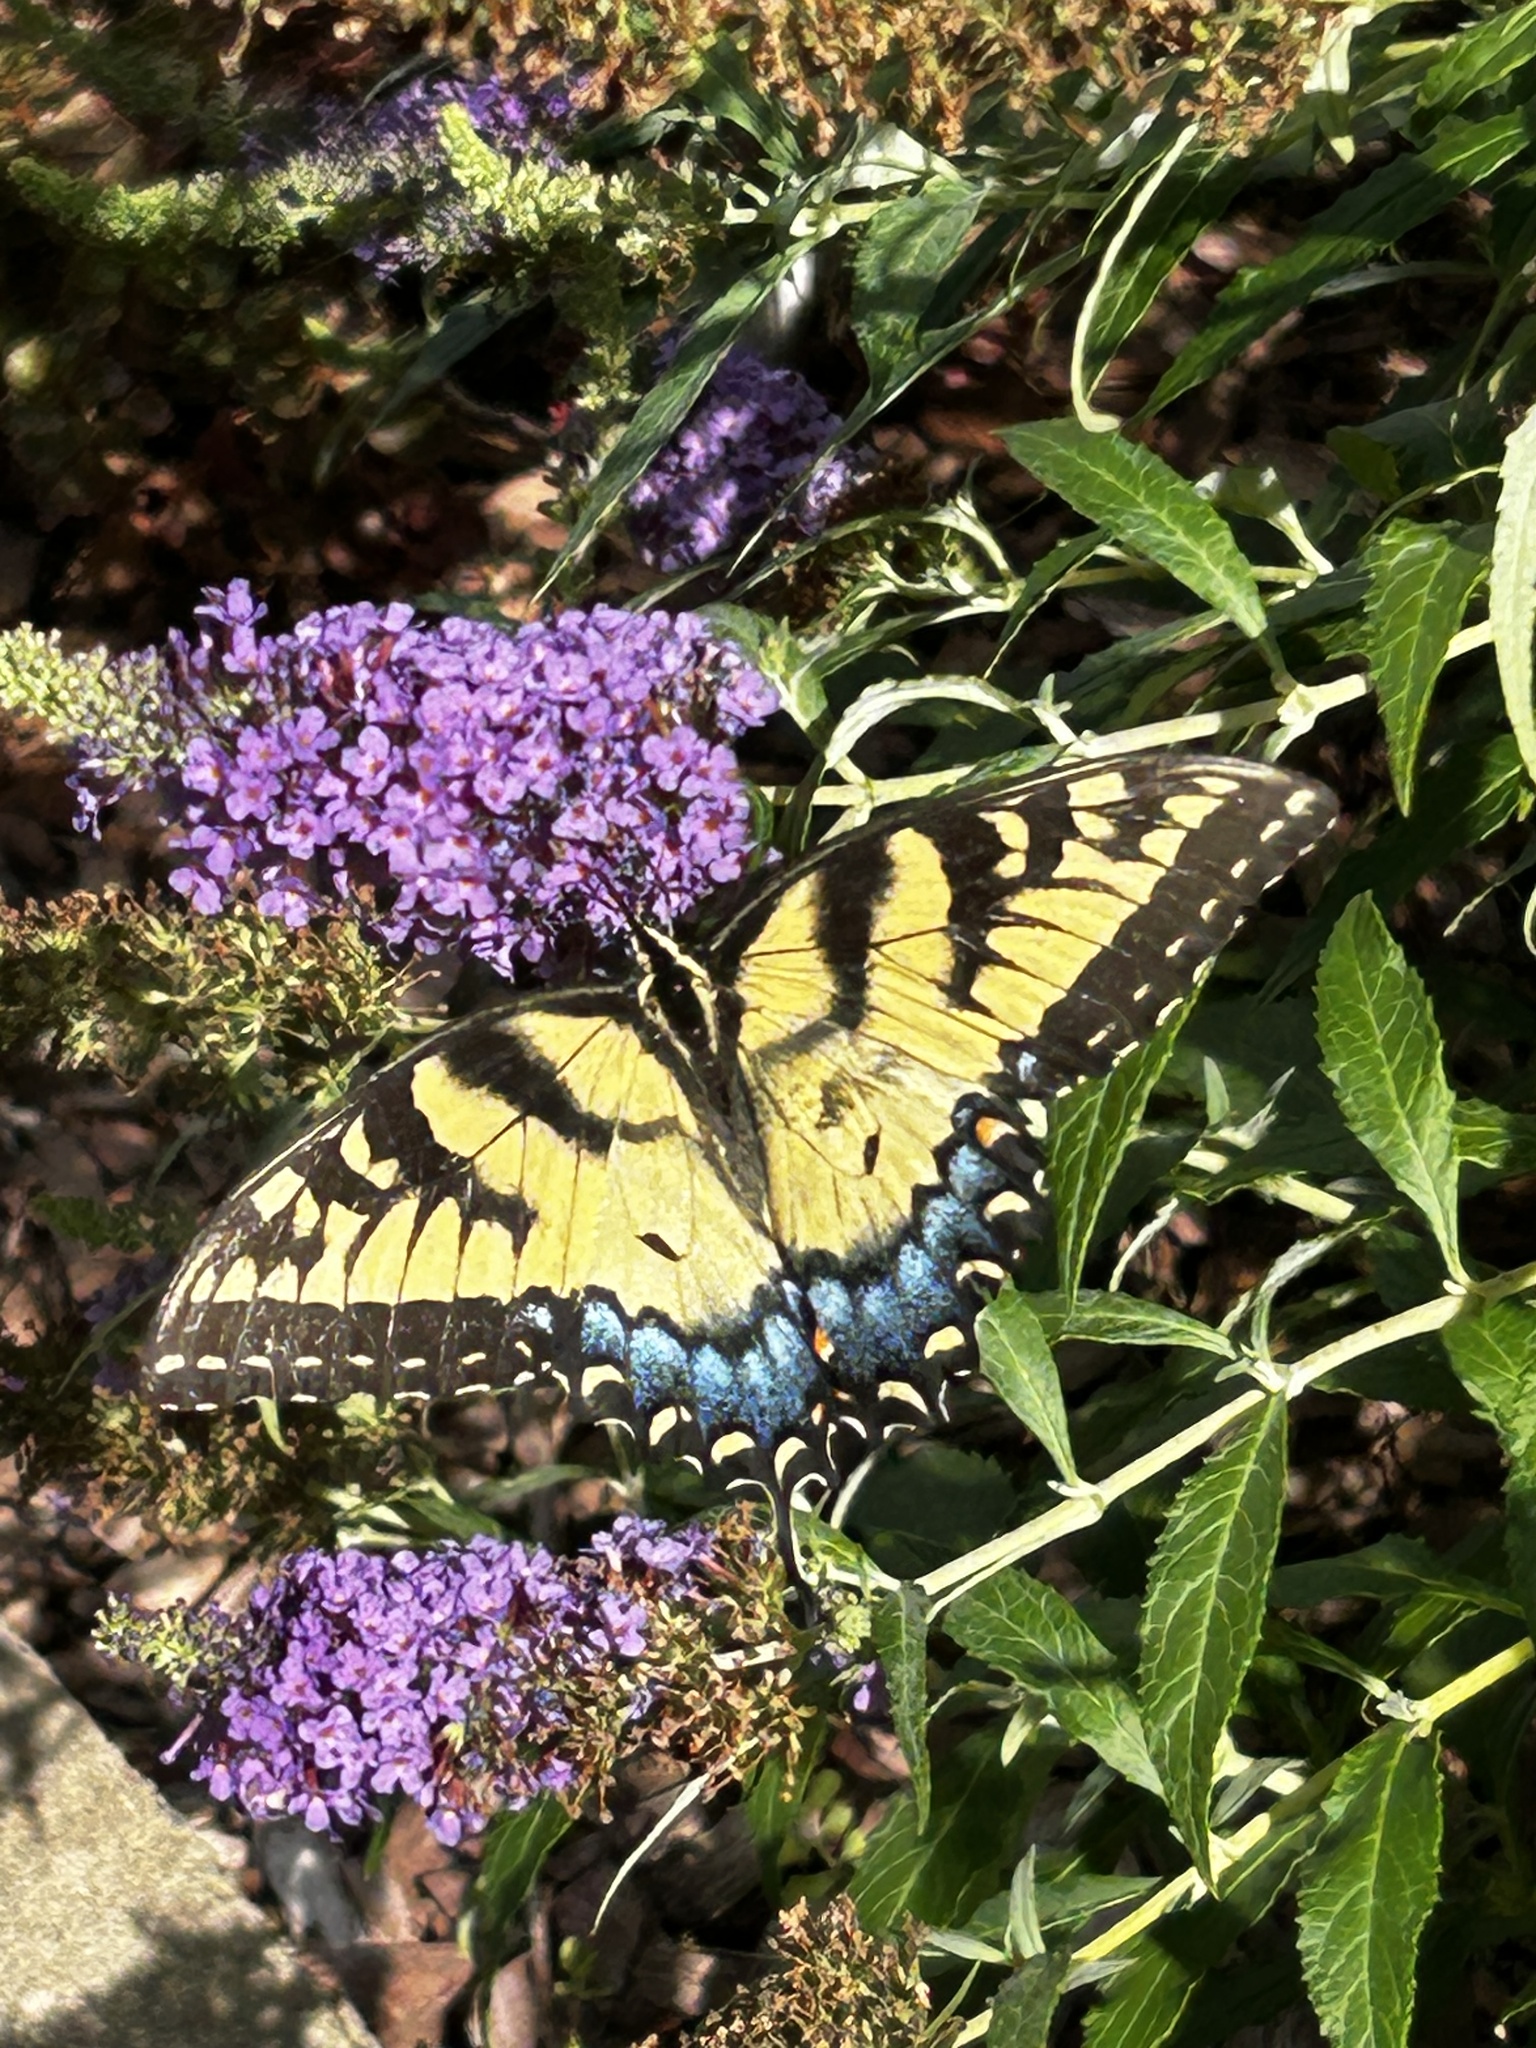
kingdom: Animalia
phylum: Arthropoda
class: Insecta
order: Lepidoptera
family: Papilionidae
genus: Papilio
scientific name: Papilio glaucus
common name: Tiger swallowtail
